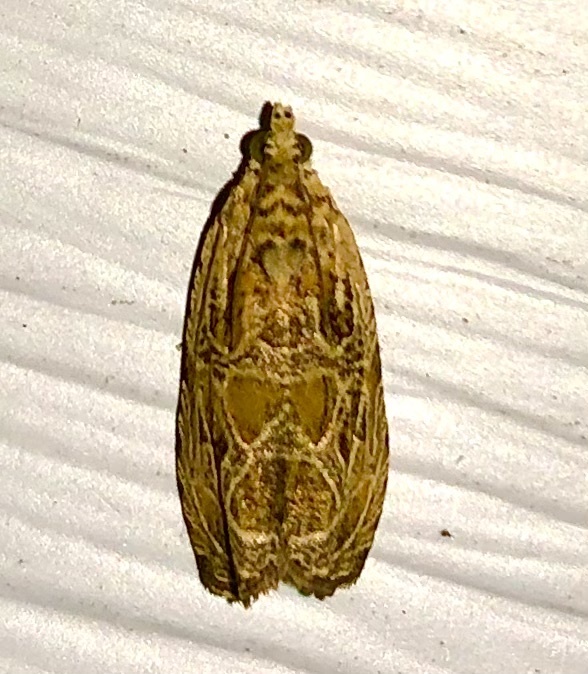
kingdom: Animalia
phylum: Arthropoda
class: Insecta
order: Lepidoptera
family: Tortricidae
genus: Olethreutes
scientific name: Olethreutes lacunana
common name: Lacuna moth
